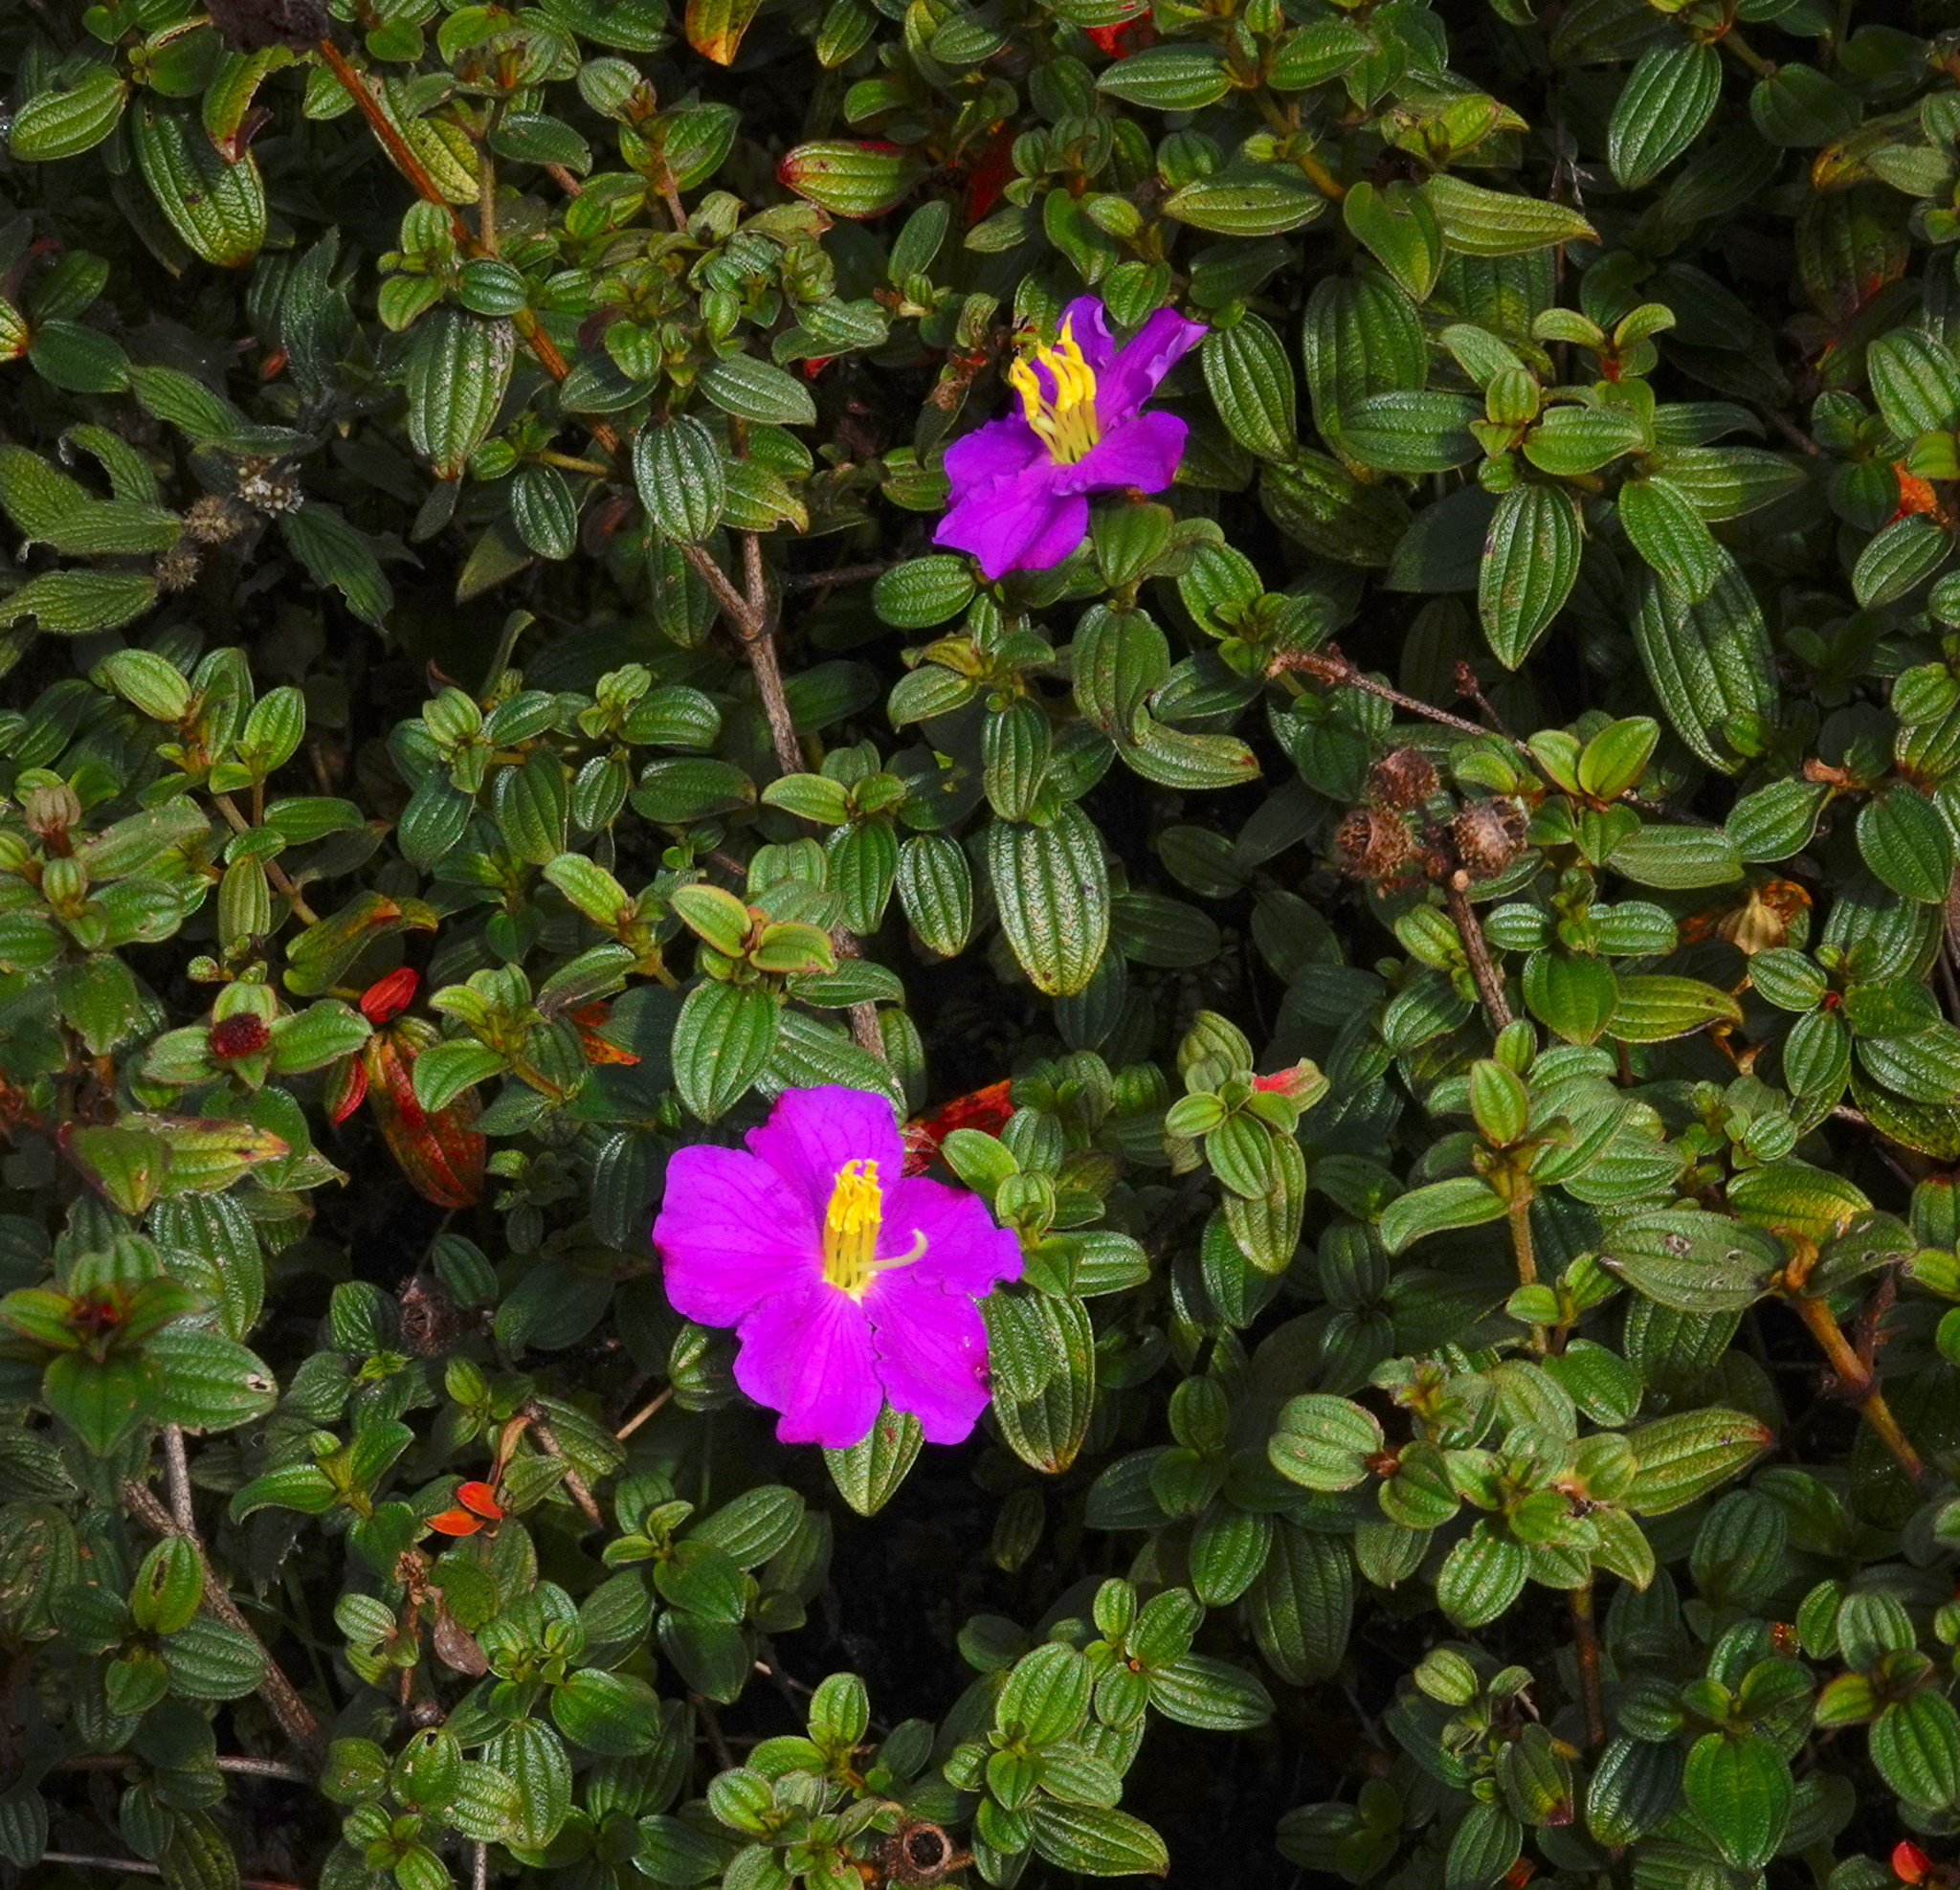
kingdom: Plantae
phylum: Tracheophyta
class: Magnoliopsida
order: Myrtales
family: Melastomataceae
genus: Osbeckia
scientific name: Osbeckia rubicunda
